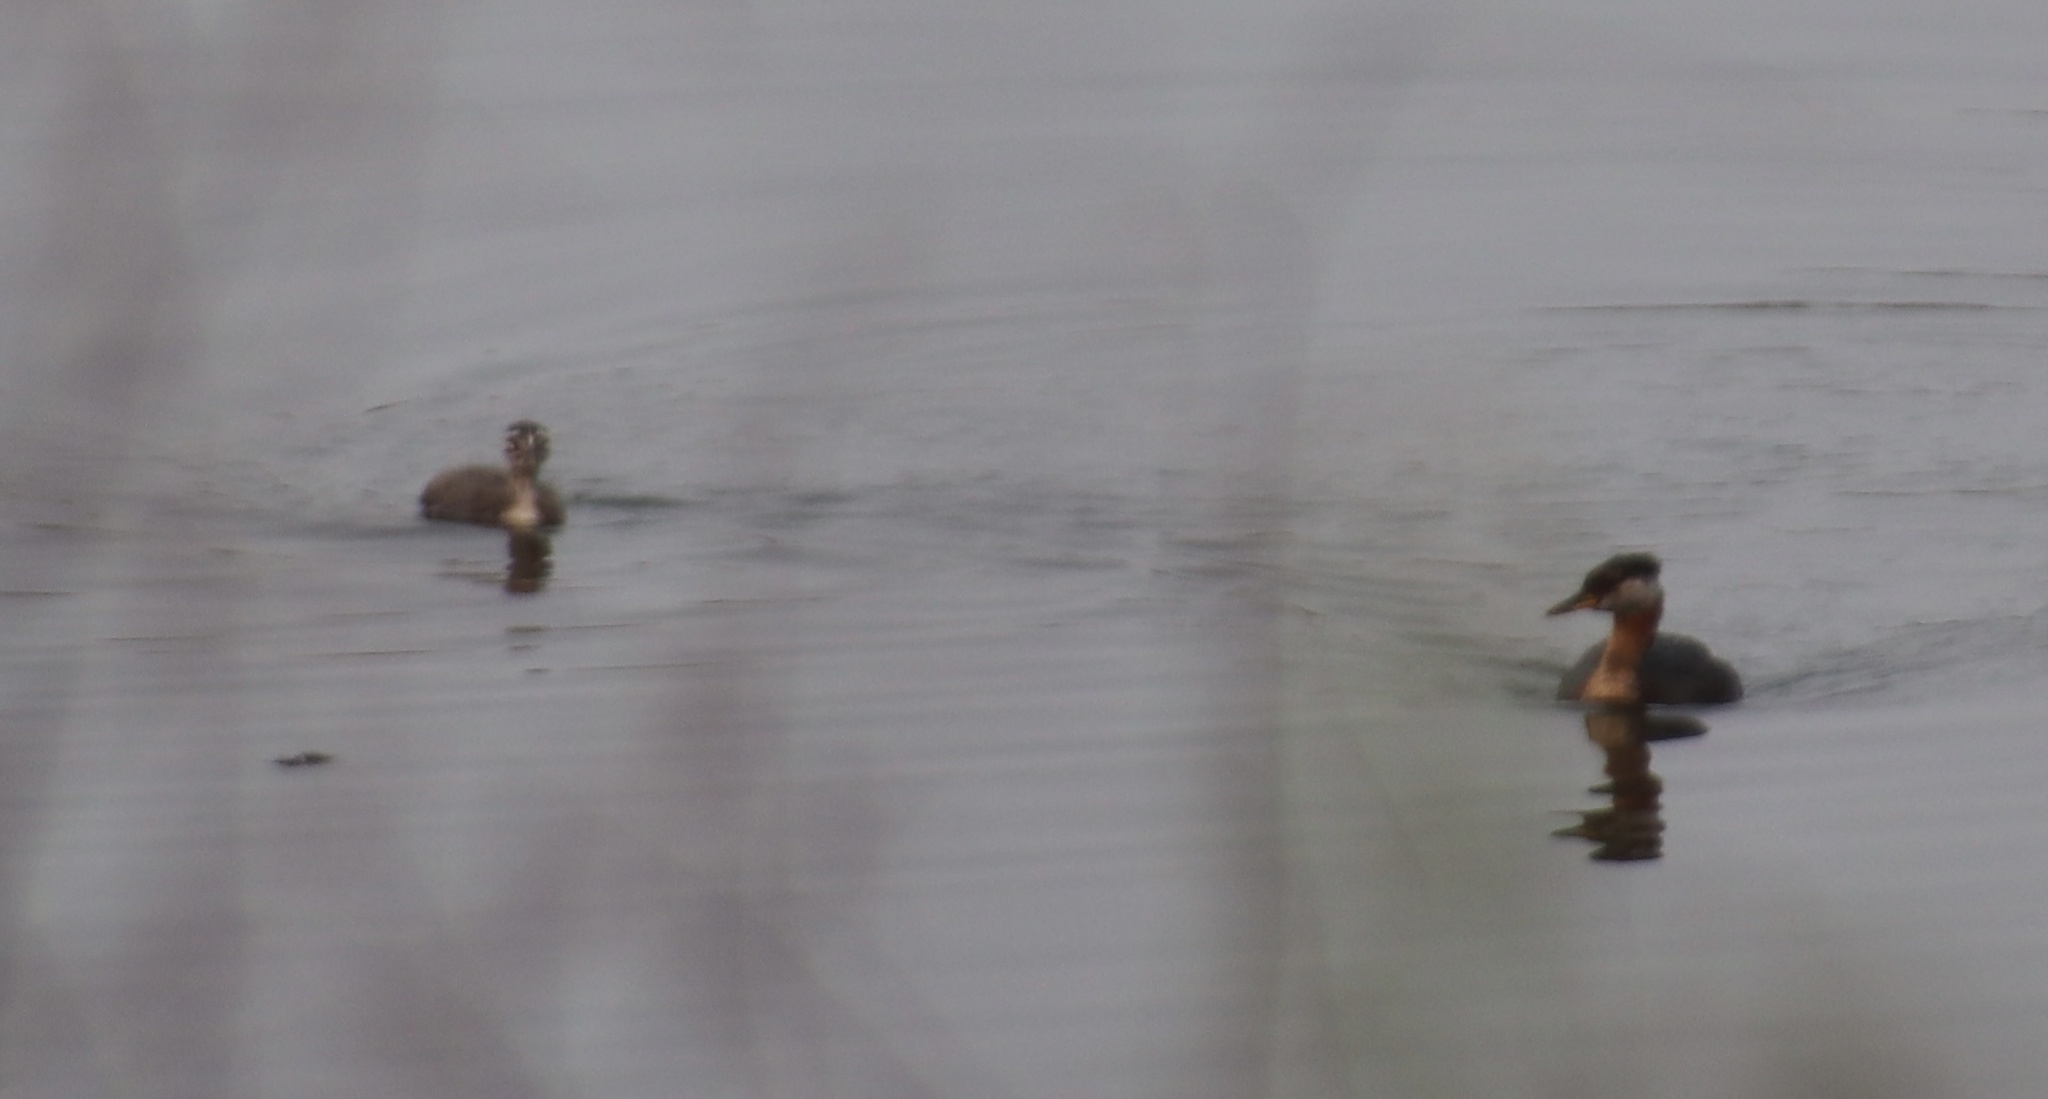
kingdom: Animalia
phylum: Chordata
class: Aves
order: Podicipediformes
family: Podicipedidae
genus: Podiceps
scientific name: Podiceps grisegena
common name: Red-necked grebe
